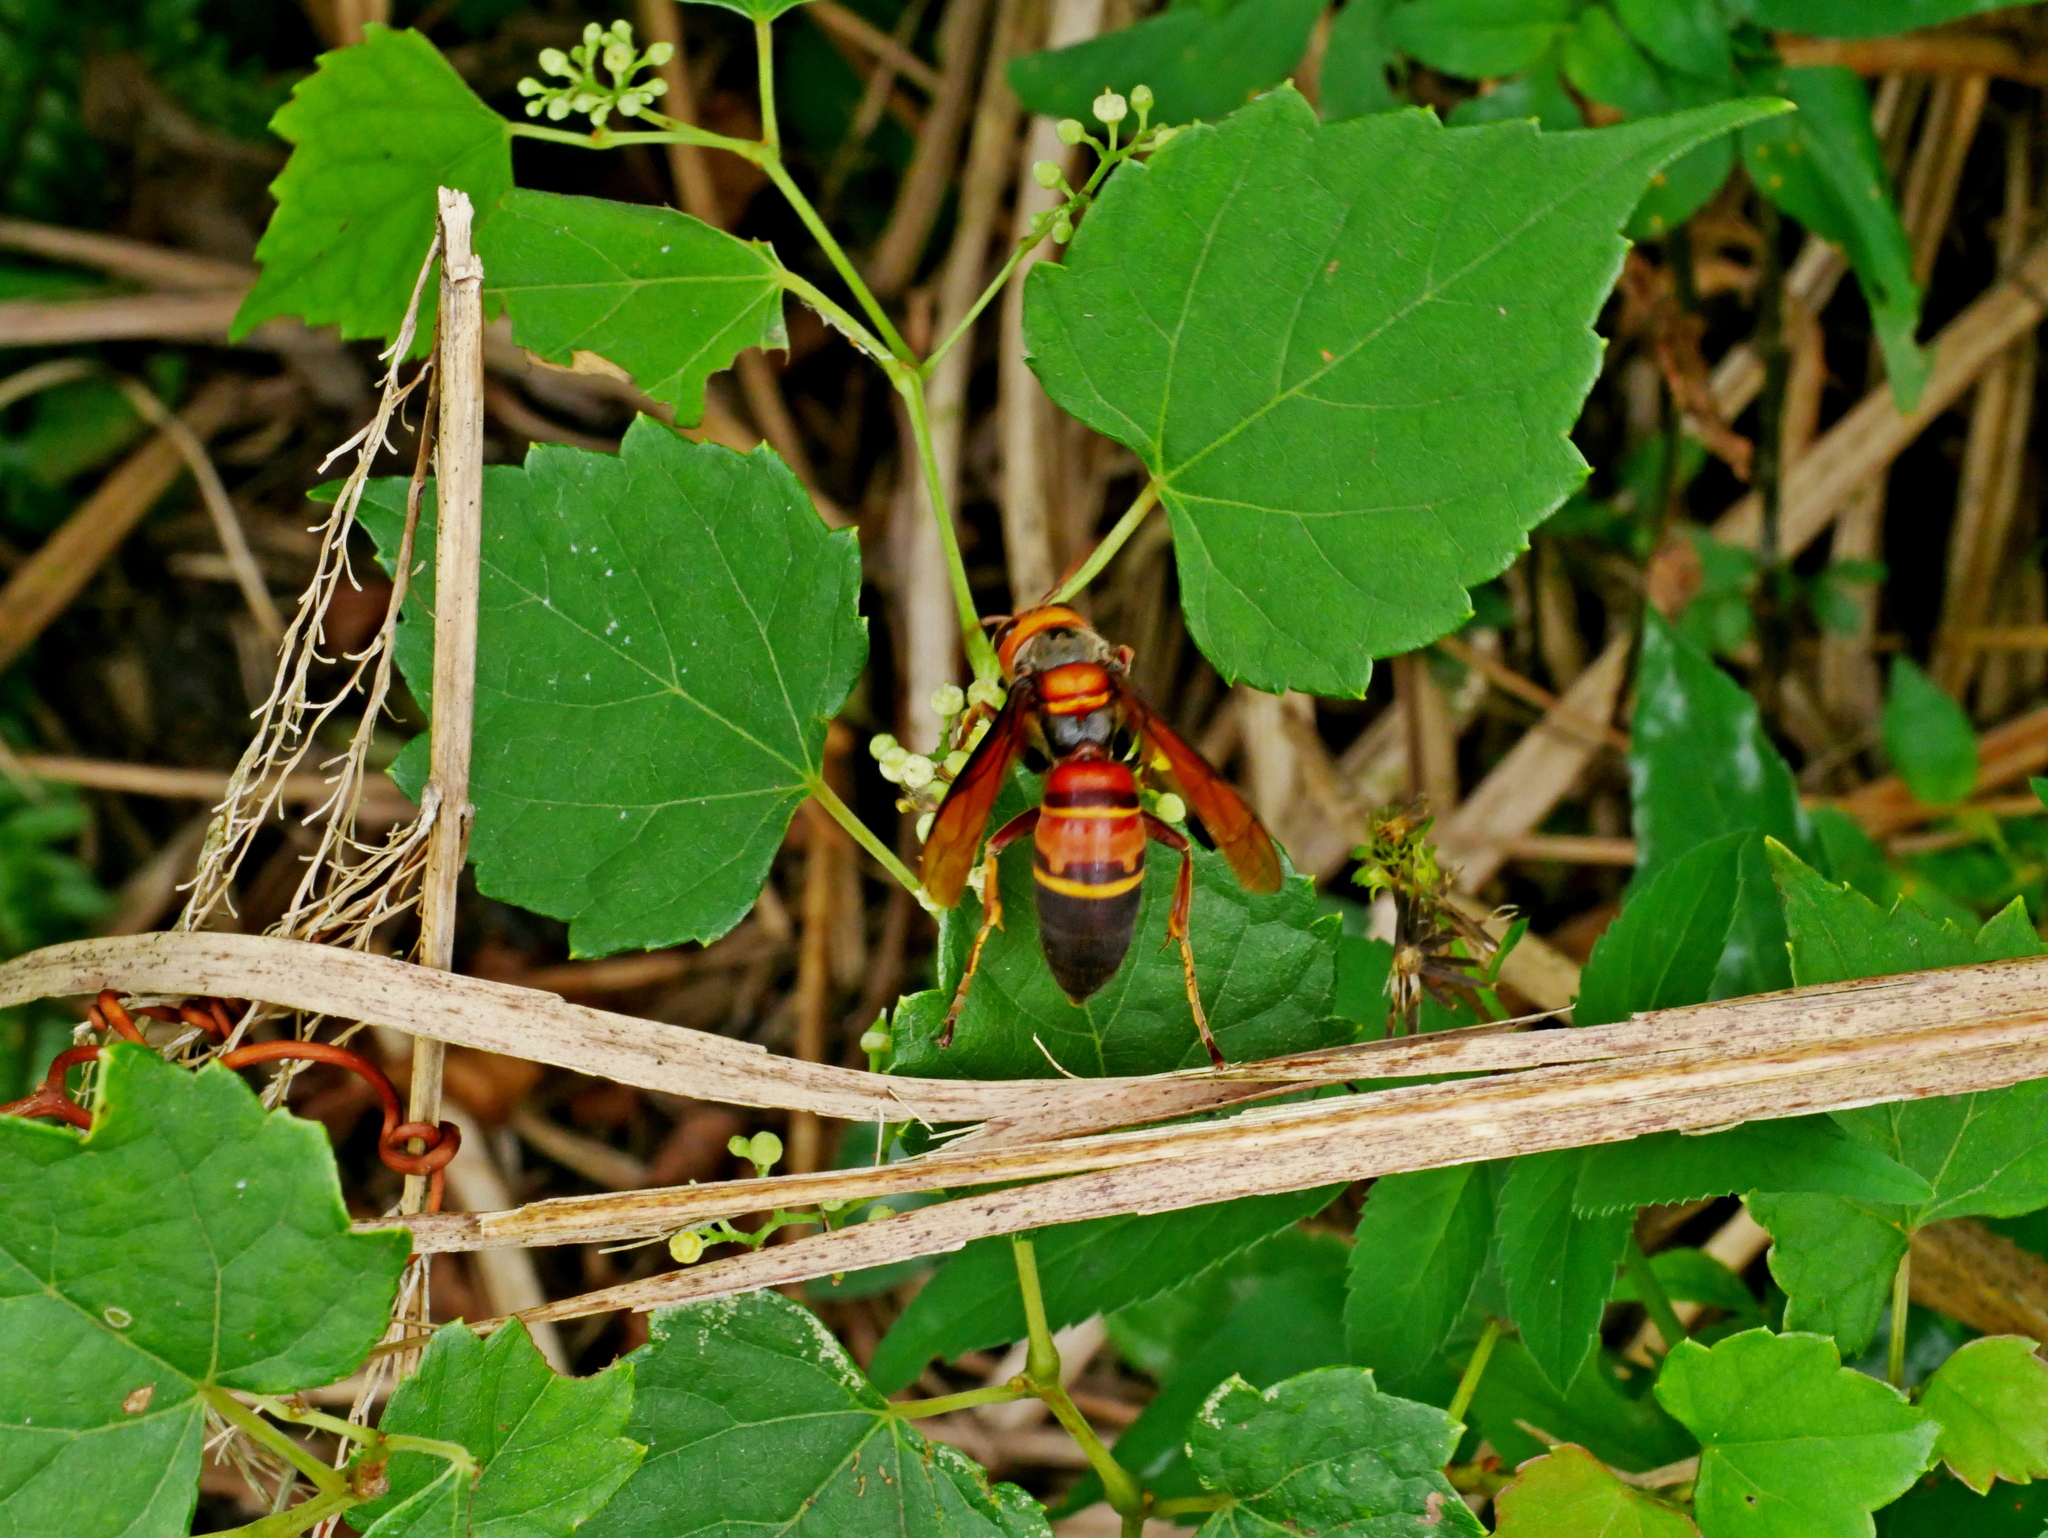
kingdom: Animalia
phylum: Arthropoda
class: Insecta
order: Hymenoptera
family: Vespidae
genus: Vespa
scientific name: Vespa ducalis
